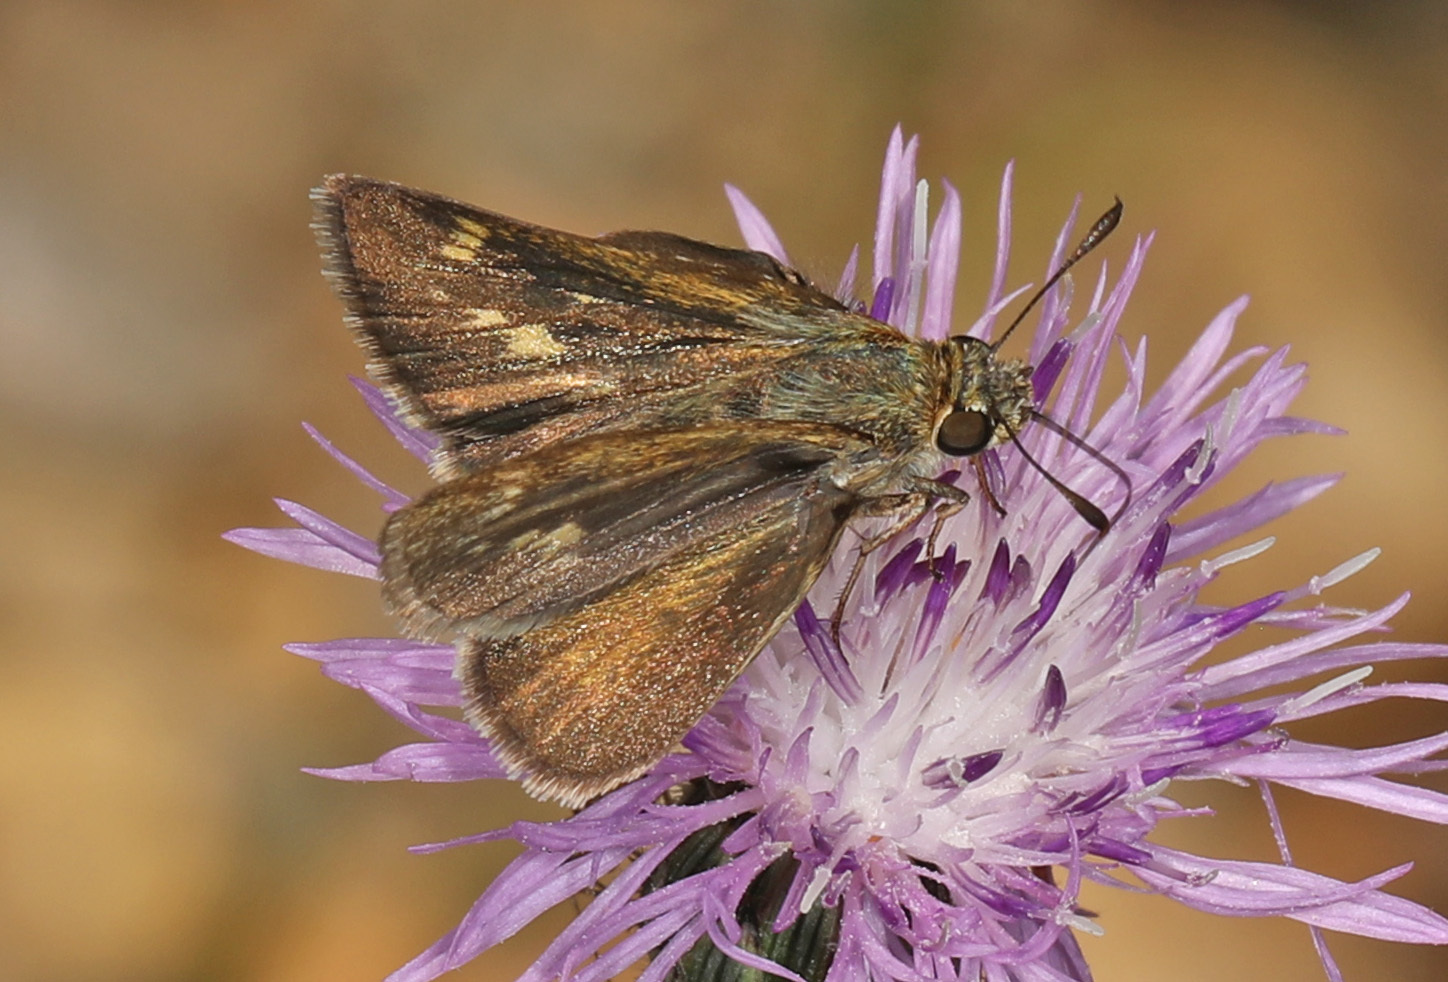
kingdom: Animalia
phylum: Arthropoda
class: Insecta
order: Lepidoptera
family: Hesperiidae
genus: Polites
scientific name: Polites origenes
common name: Crossline skipper
